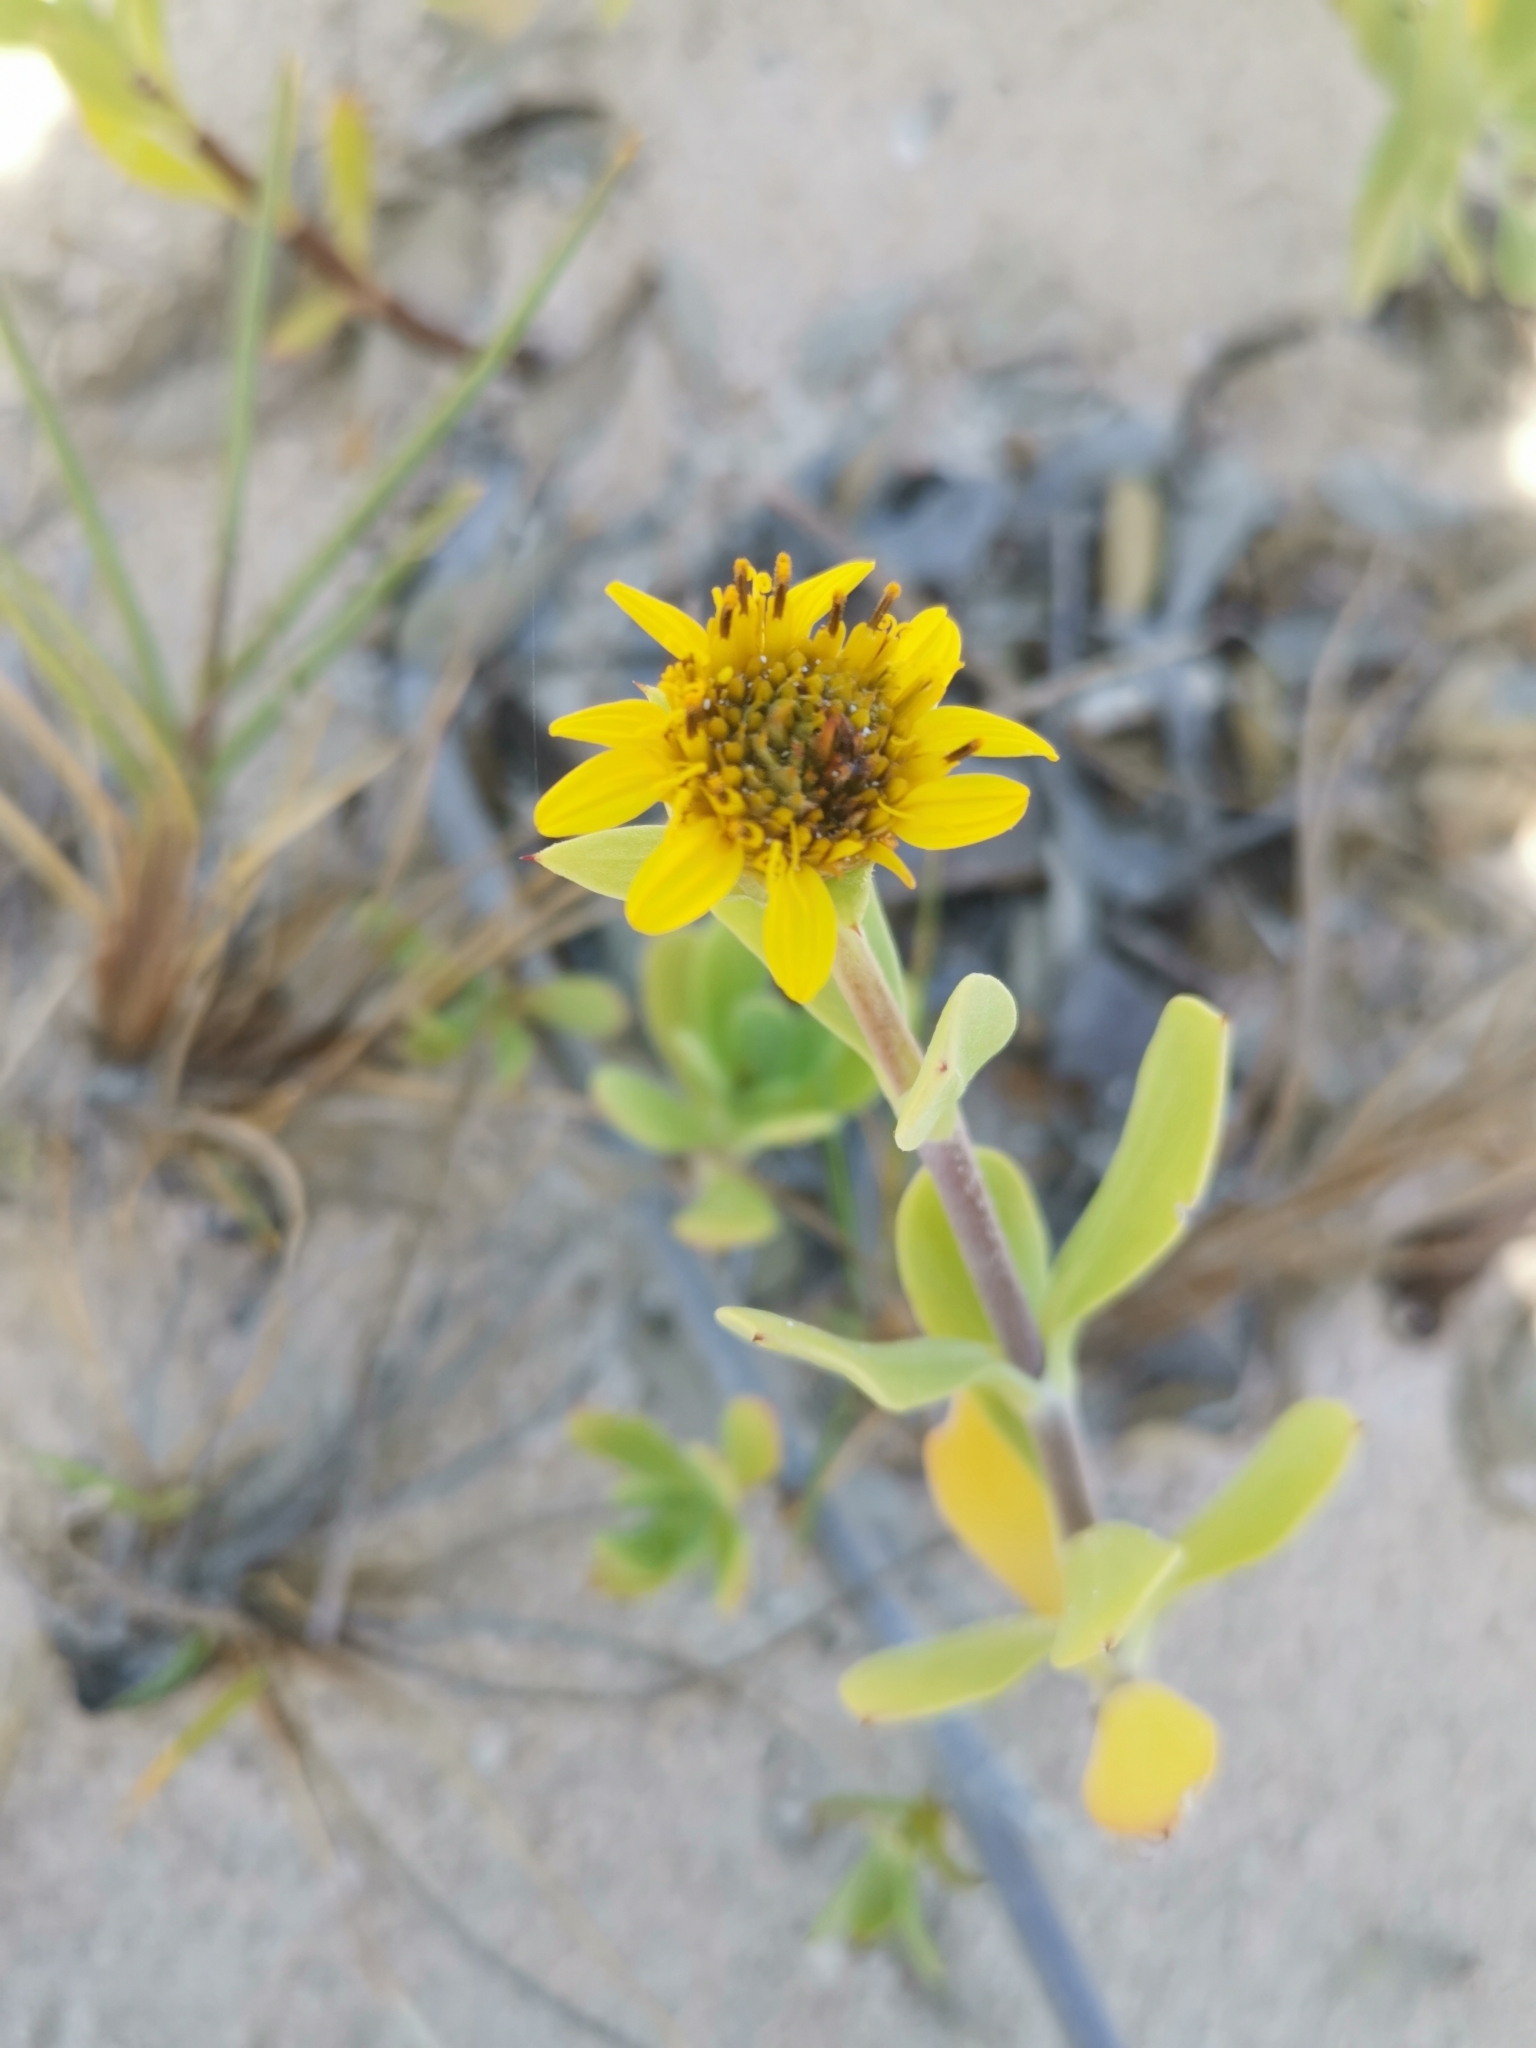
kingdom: Plantae
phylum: Tracheophyta
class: Magnoliopsida
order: Asterales
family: Asteraceae
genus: Borrichia
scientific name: Borrichia arborescens
